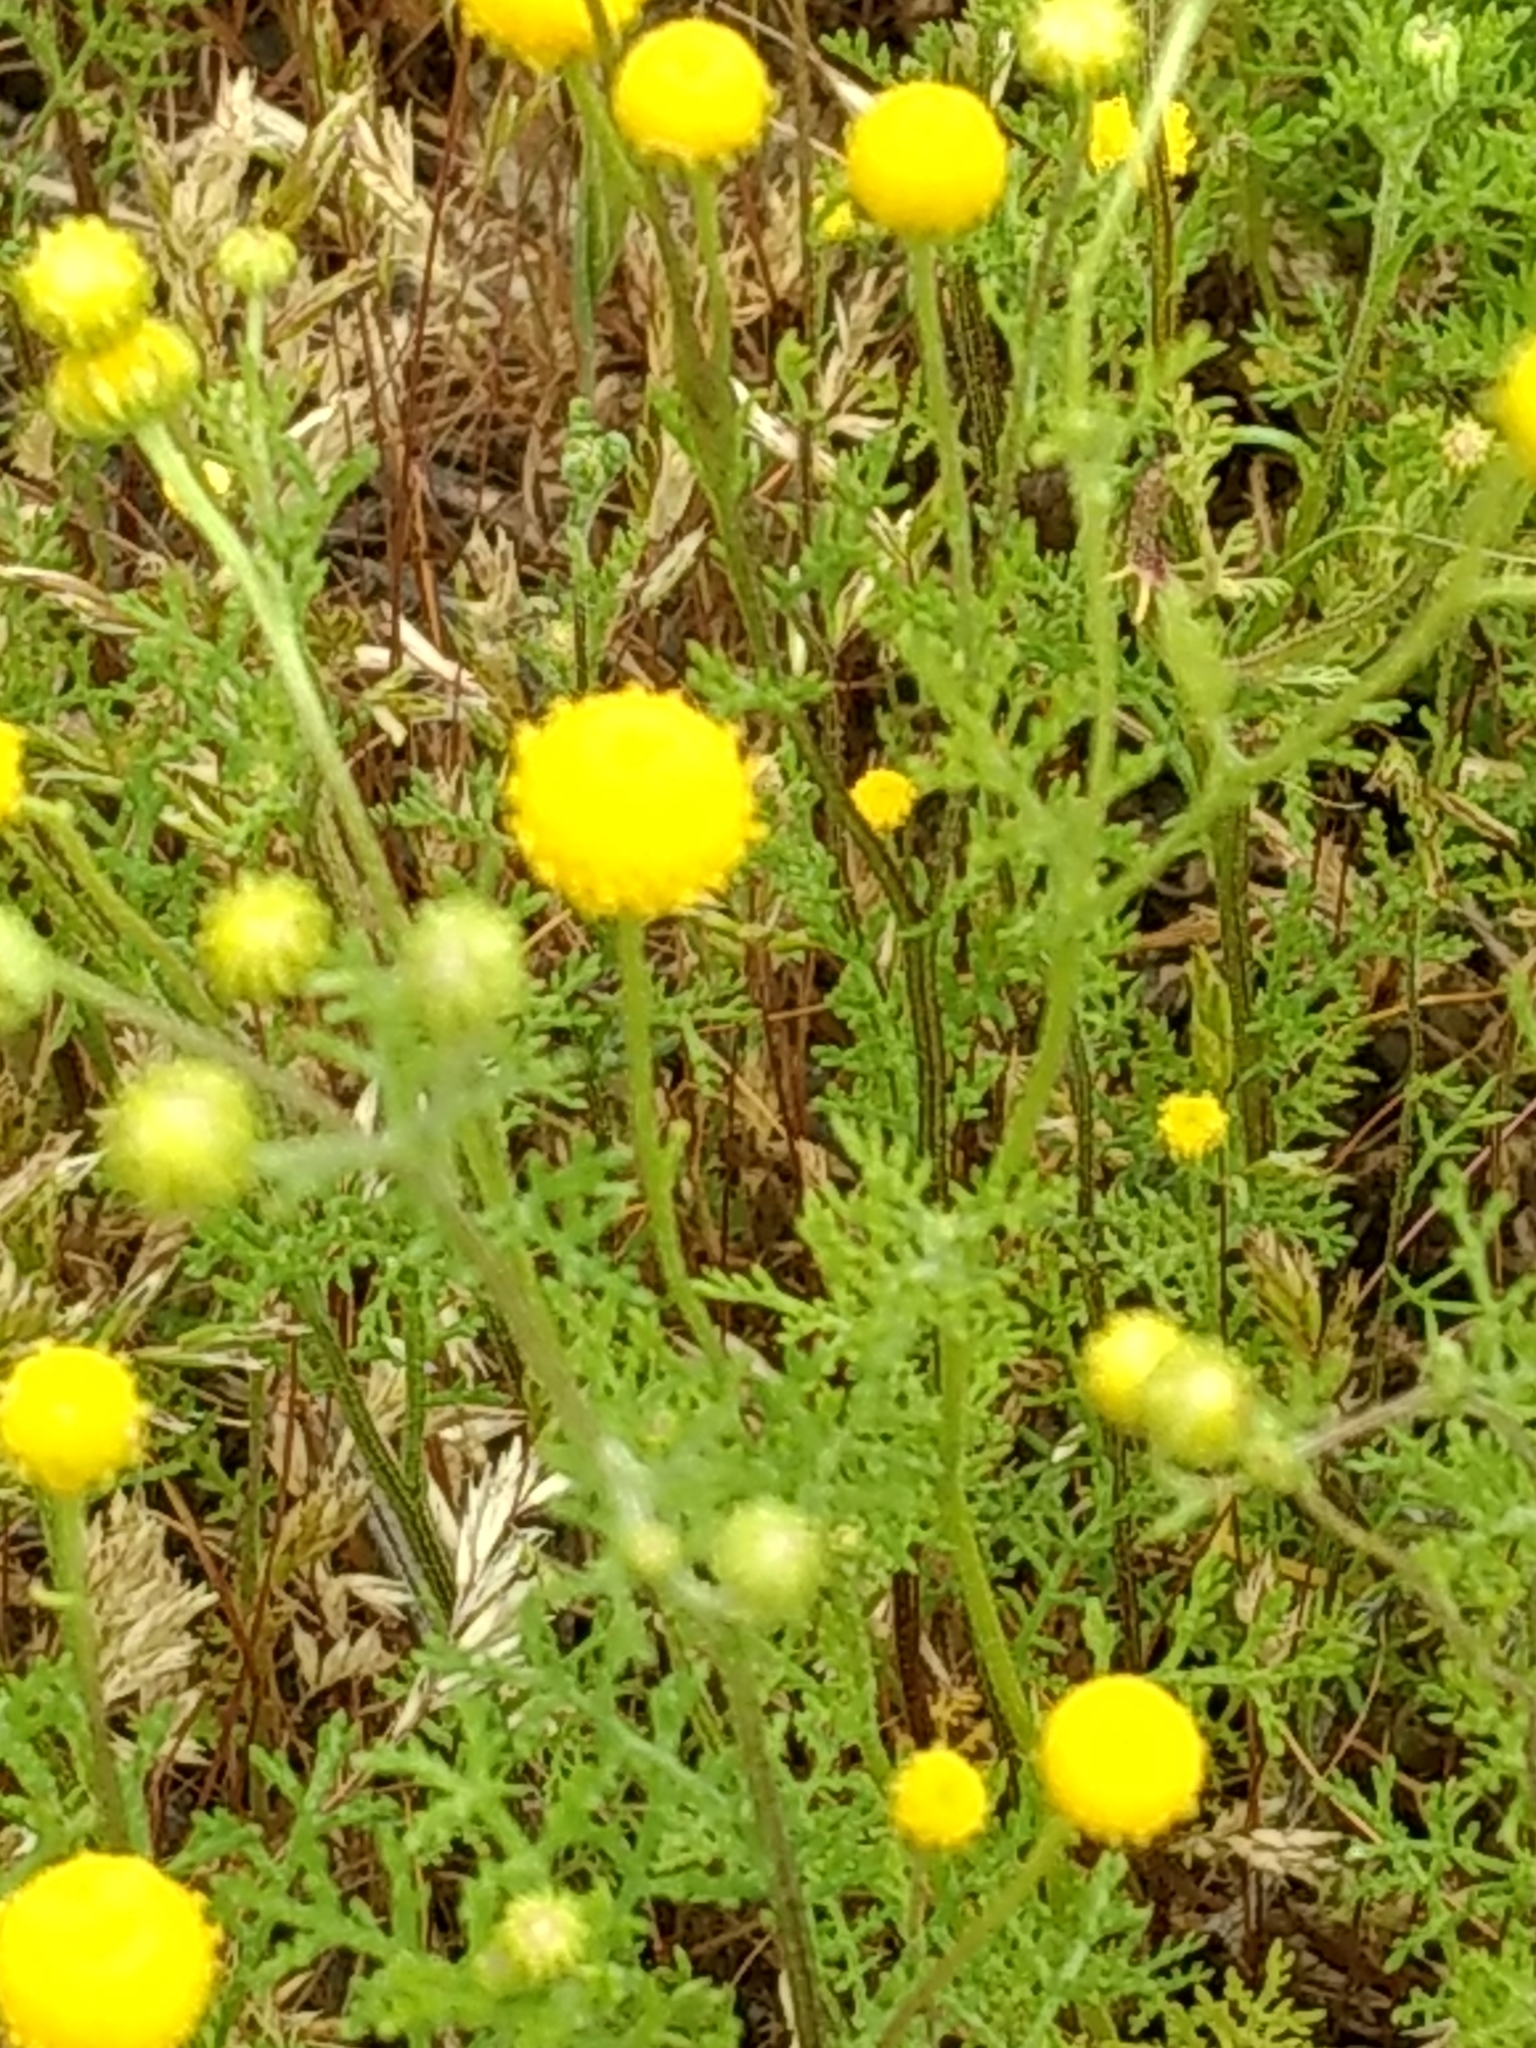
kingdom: Plantae
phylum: Tracheophyta
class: Magnoliopsida
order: Asterales
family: Asteraceae
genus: Oncosiphon
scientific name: Oncosiphon pilulifer
